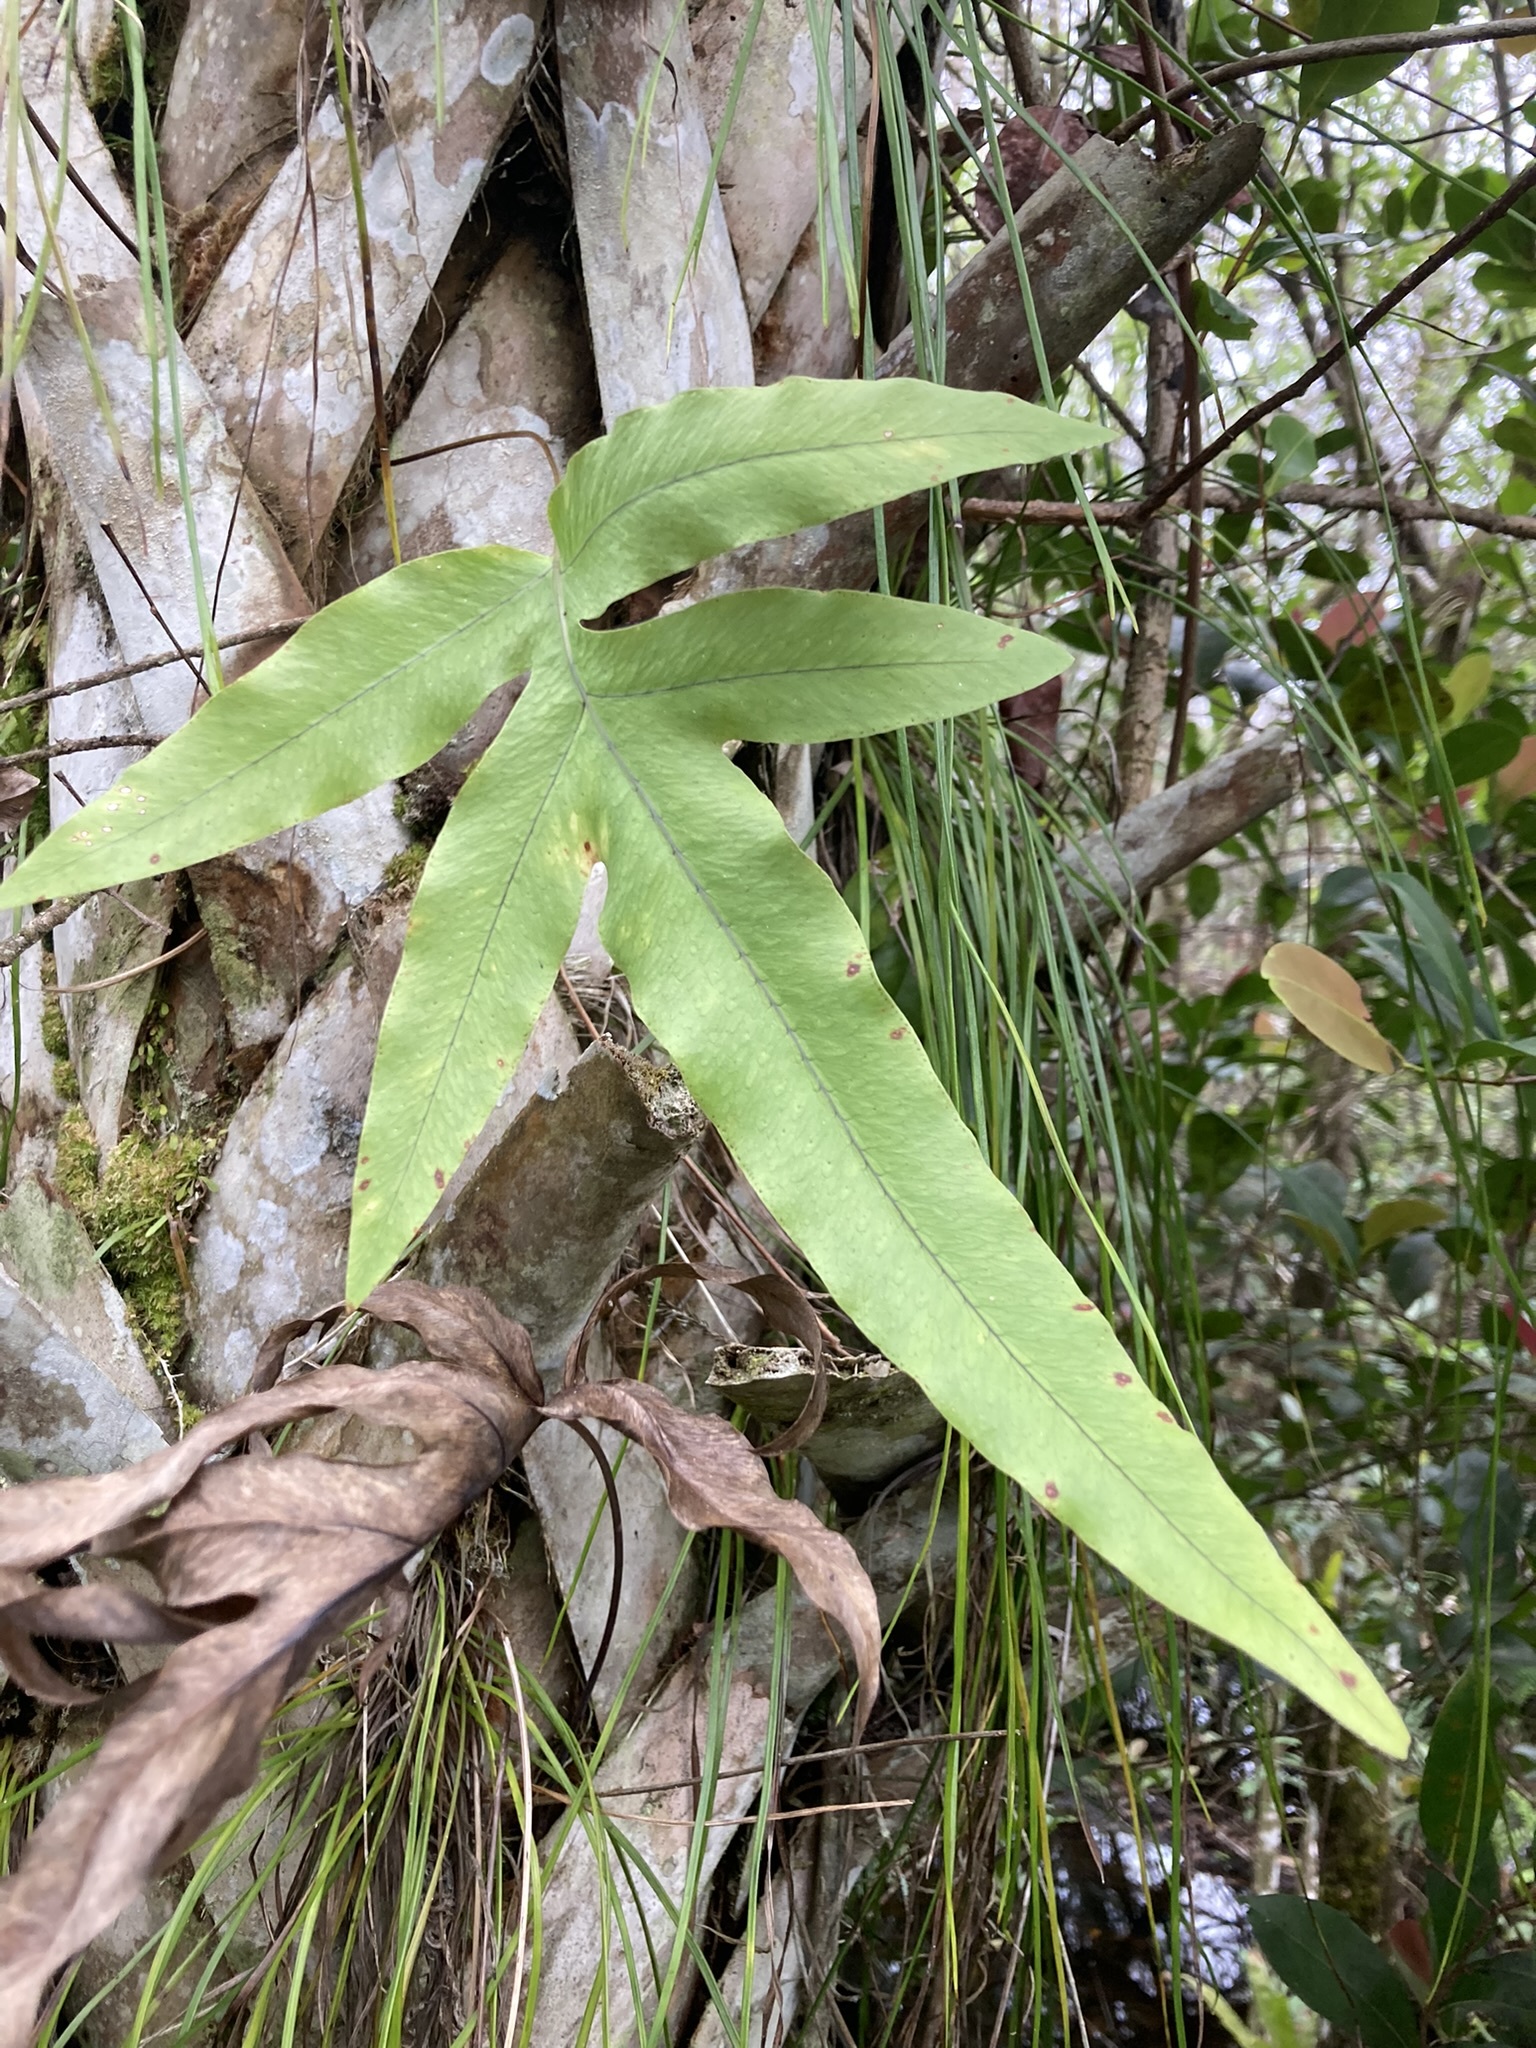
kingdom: Plantae
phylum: Tracheophyta
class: Polypodiopsida
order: Polypodiales
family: Polypodiaceae
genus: Phlebodium
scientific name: Phlebodium aureum
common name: Gold-foot fern
